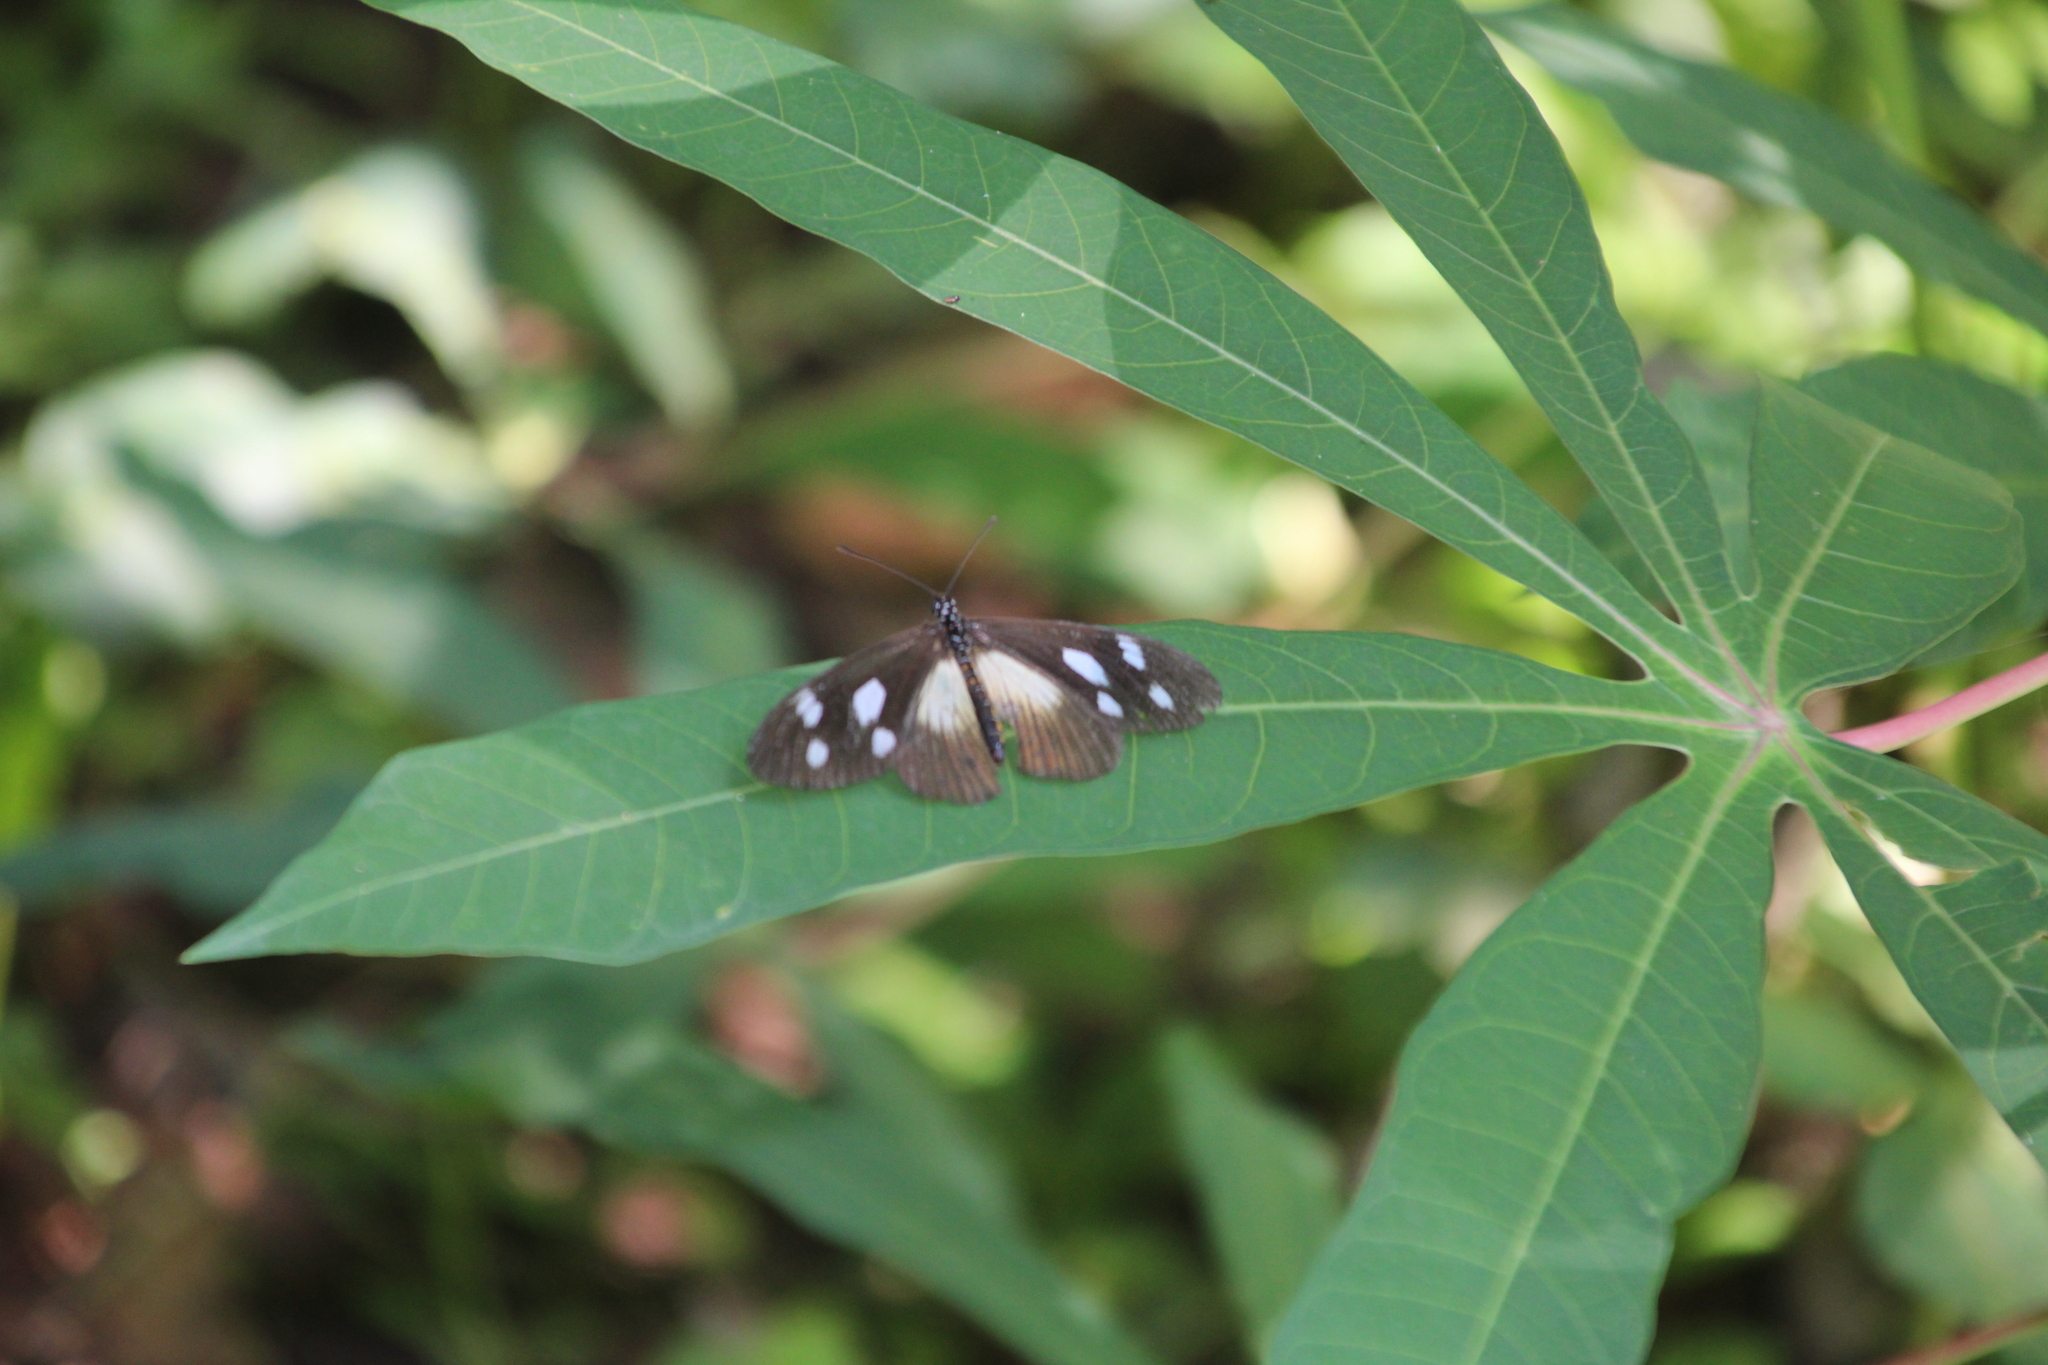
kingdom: Animalia
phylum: Arthropoda
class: Insecta
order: Lepidoptera
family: Nymphalidae
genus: Acraea
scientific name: Acraea Telchinia lycoa
